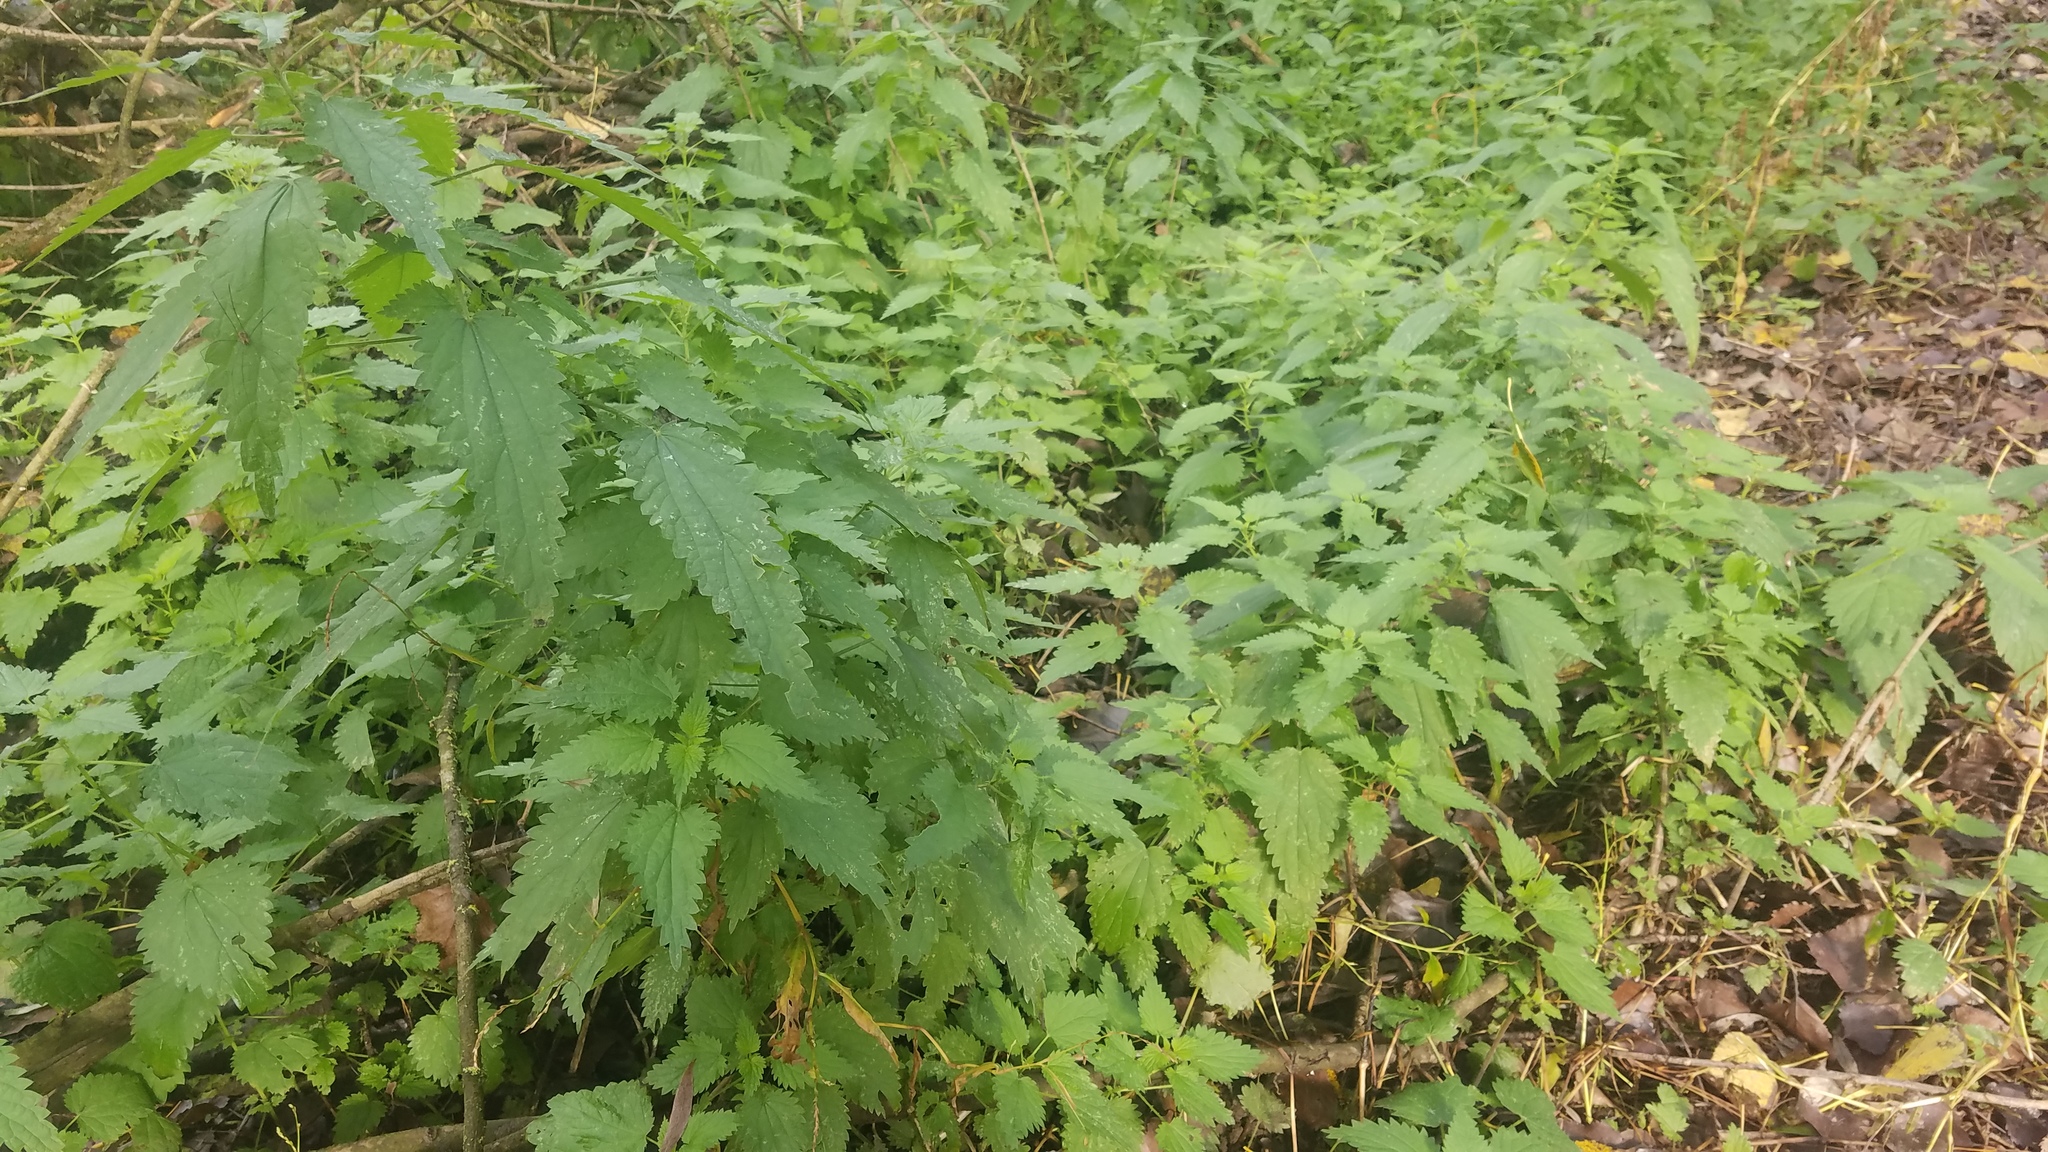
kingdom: Plantae
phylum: Tracheophyta
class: Magnoliopsida
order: Rosales
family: Urticaceae
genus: Urtica
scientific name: Urtica dioica
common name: Common nettle
